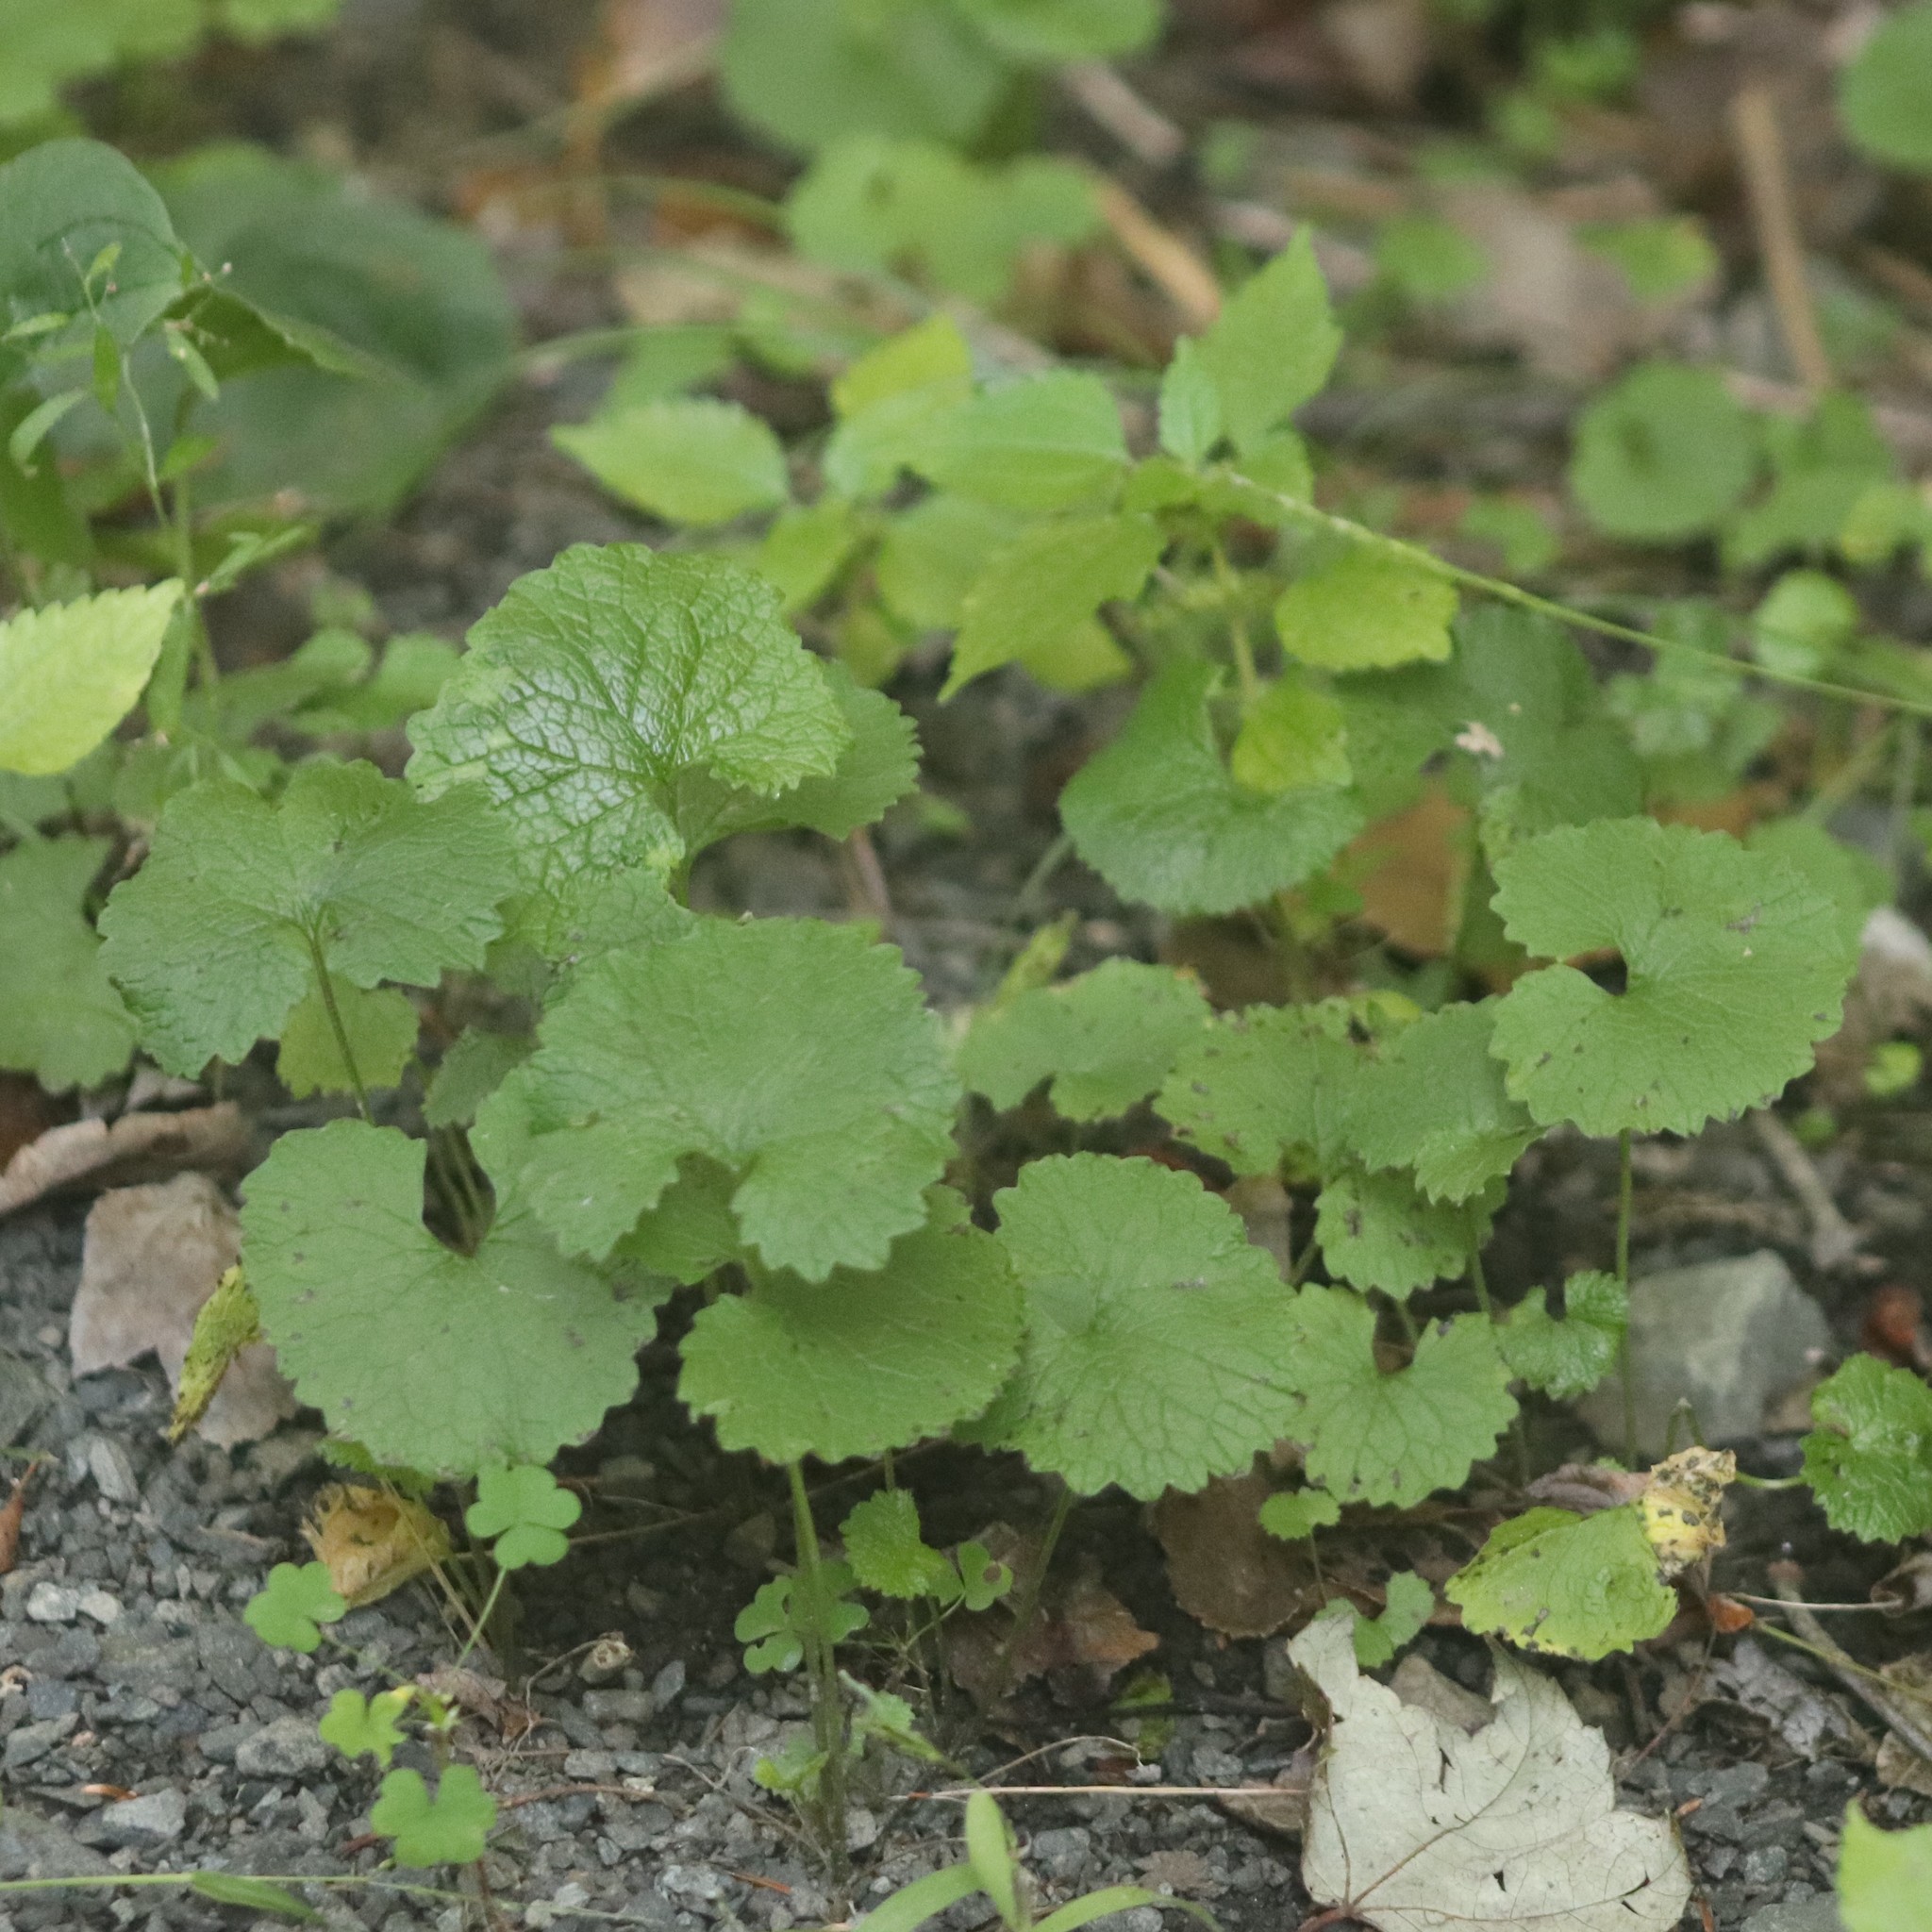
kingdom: Plantae
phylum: Tracheophyta
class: Magnoliopsida
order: Brassicales
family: Brassicaceae
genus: Alliaria
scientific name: Alliaria petiolata
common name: Garlic mustard
